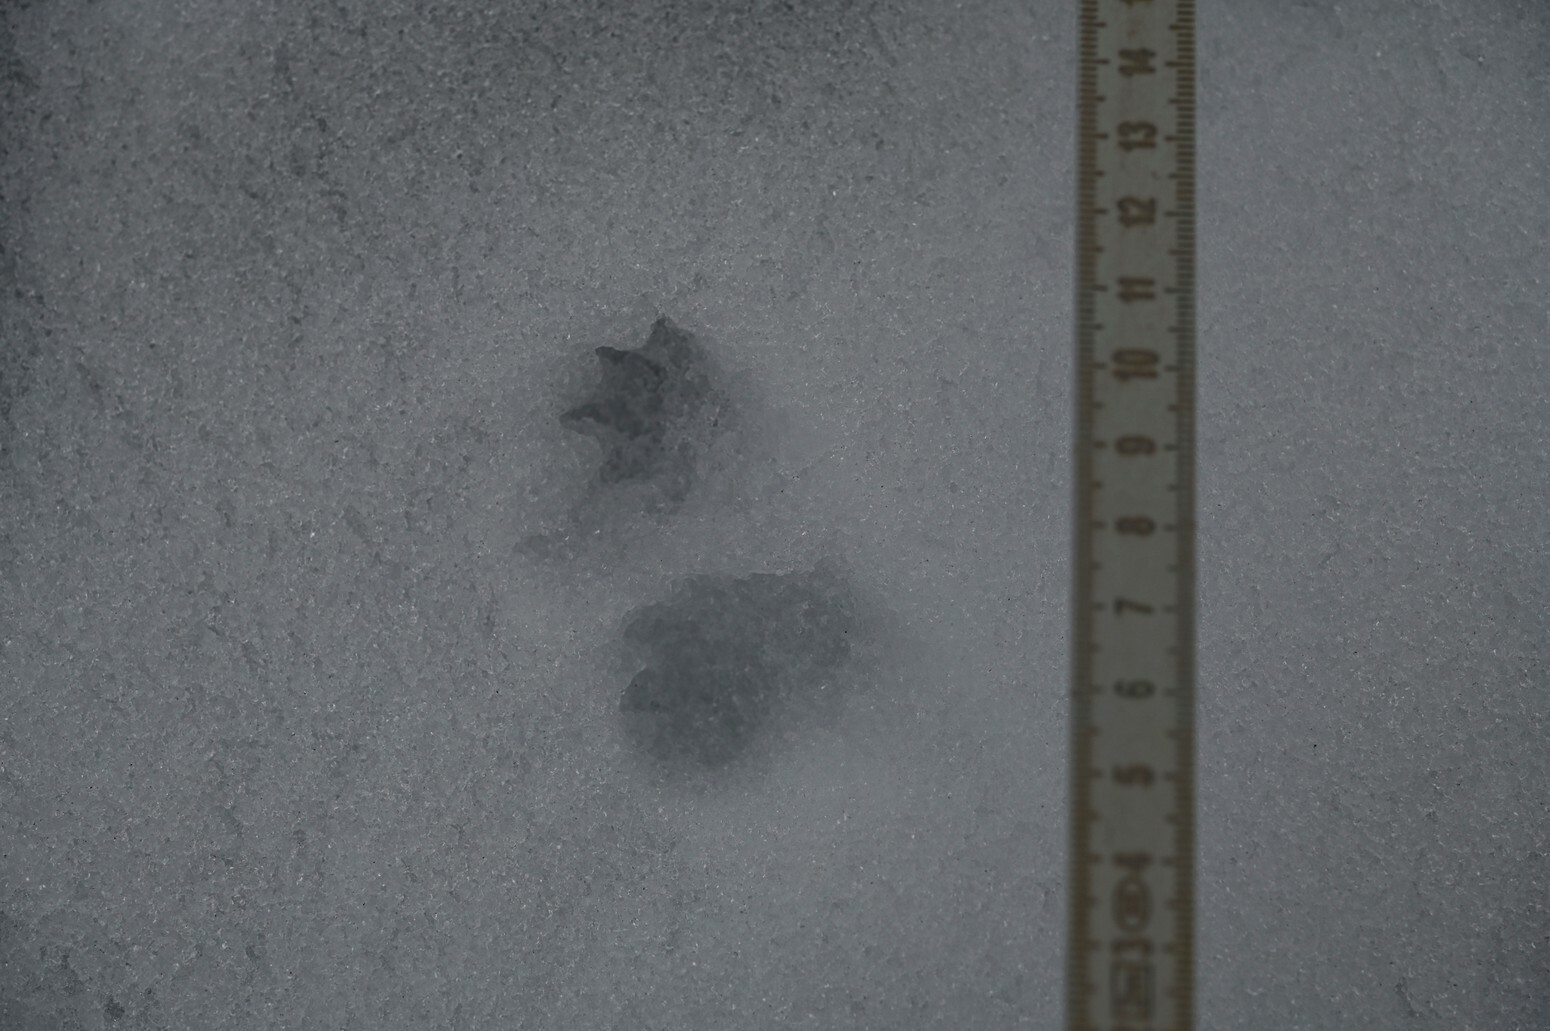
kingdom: Animalia
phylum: Chordata
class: Mammalia
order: Carnivora
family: Mustelidae
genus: Mustela
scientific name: Mustela erminea
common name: Stoat
